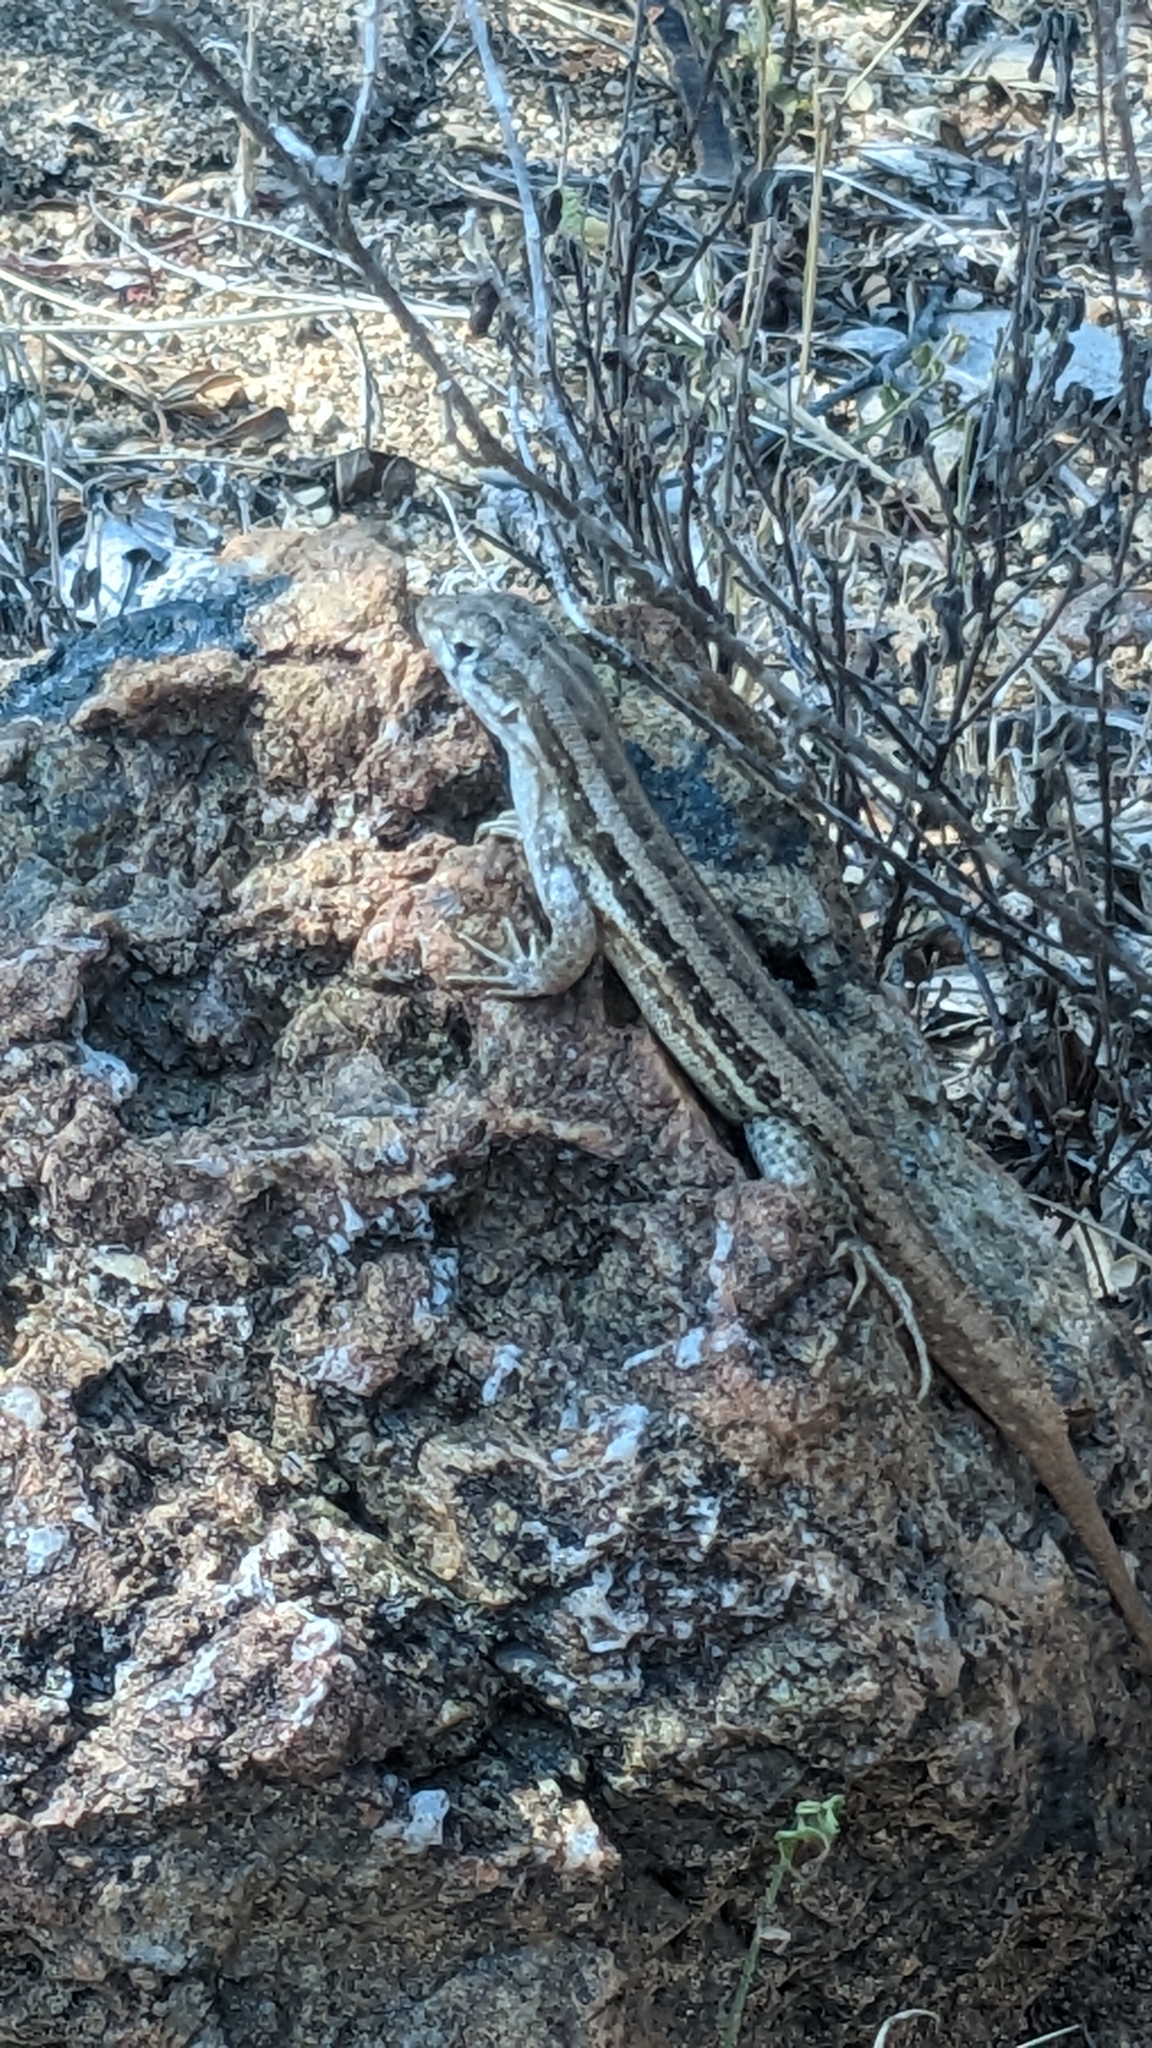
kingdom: Animalia
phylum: Chordata
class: Squamata
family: Leiocephalidae
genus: Leiocephalus
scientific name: Leiocephalus raviceps
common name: Mountain curlytail lizard
